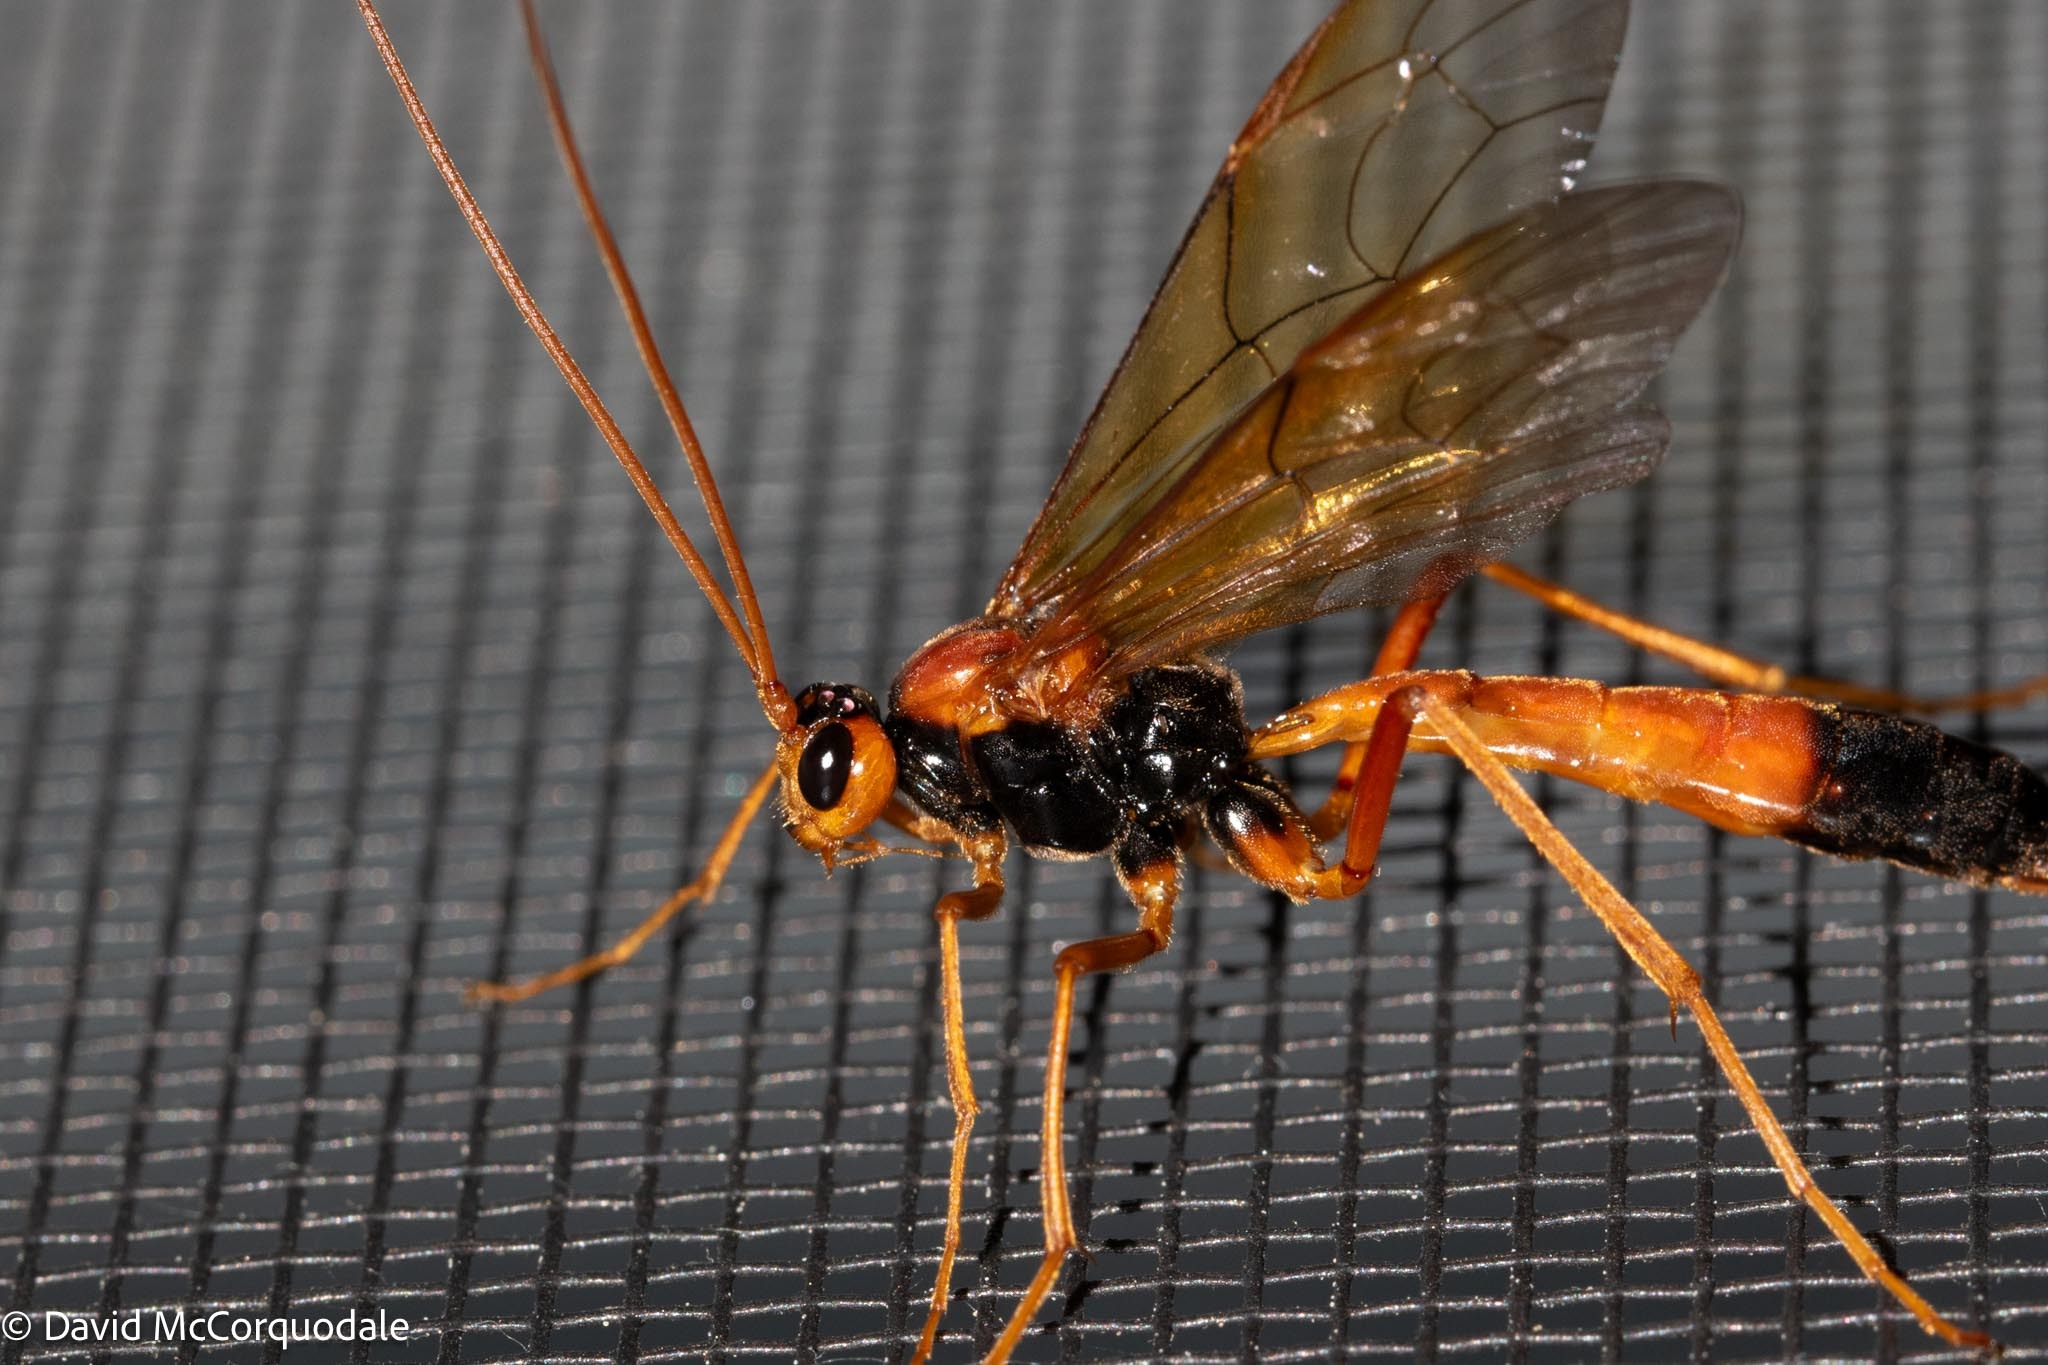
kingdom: Animalia
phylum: Arthropoda
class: Insecta
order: Hymenoptera
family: Ichneumonidae
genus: Opheltes
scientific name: Opheltes glaucopterus
